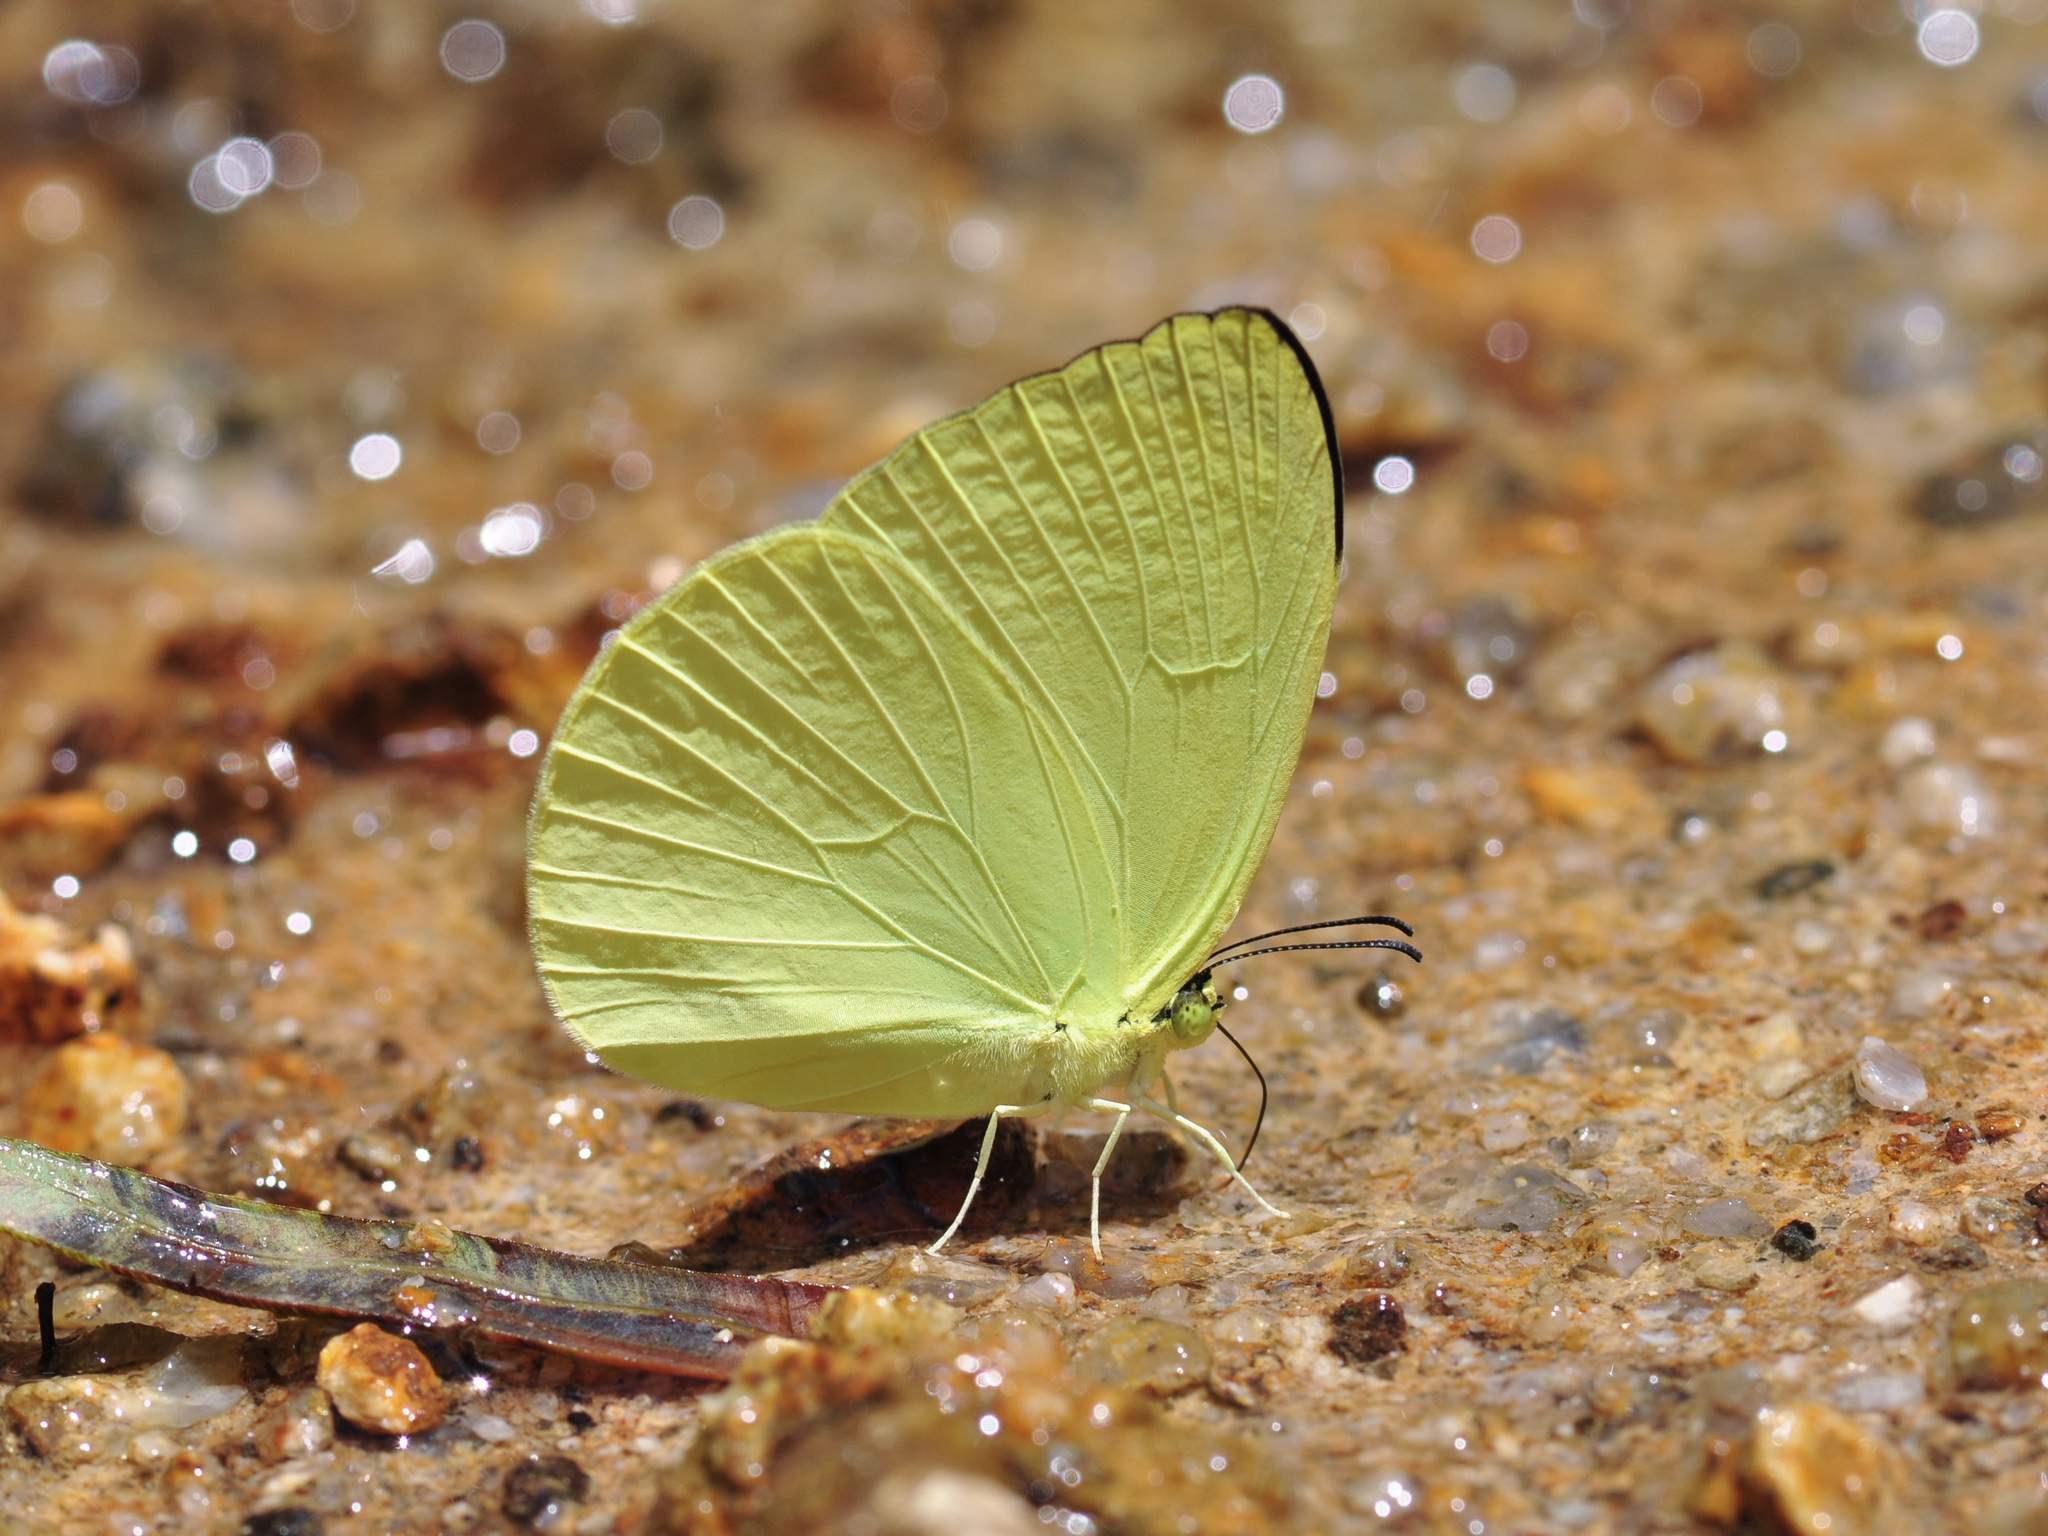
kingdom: Animalia
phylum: Arthropoda
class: Insecta
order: Lepidoptera
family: Pieridae
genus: Gandaca
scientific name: Gandaca harina
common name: Tree yellow
